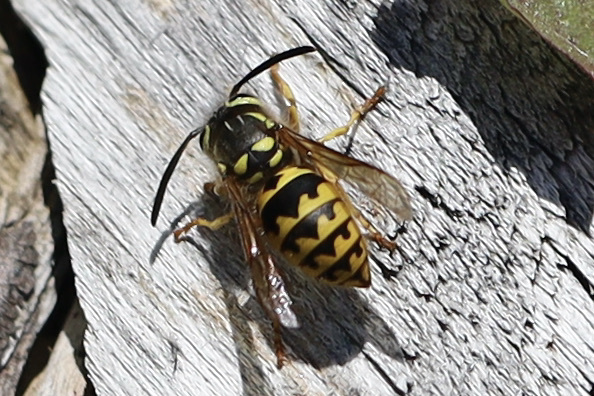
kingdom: Animalia
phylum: Arthropoda
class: Insecta
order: Hymenoptera
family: Vespidae
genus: Vespula
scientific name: Vespula pensylvanica
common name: Western yellowjacket
